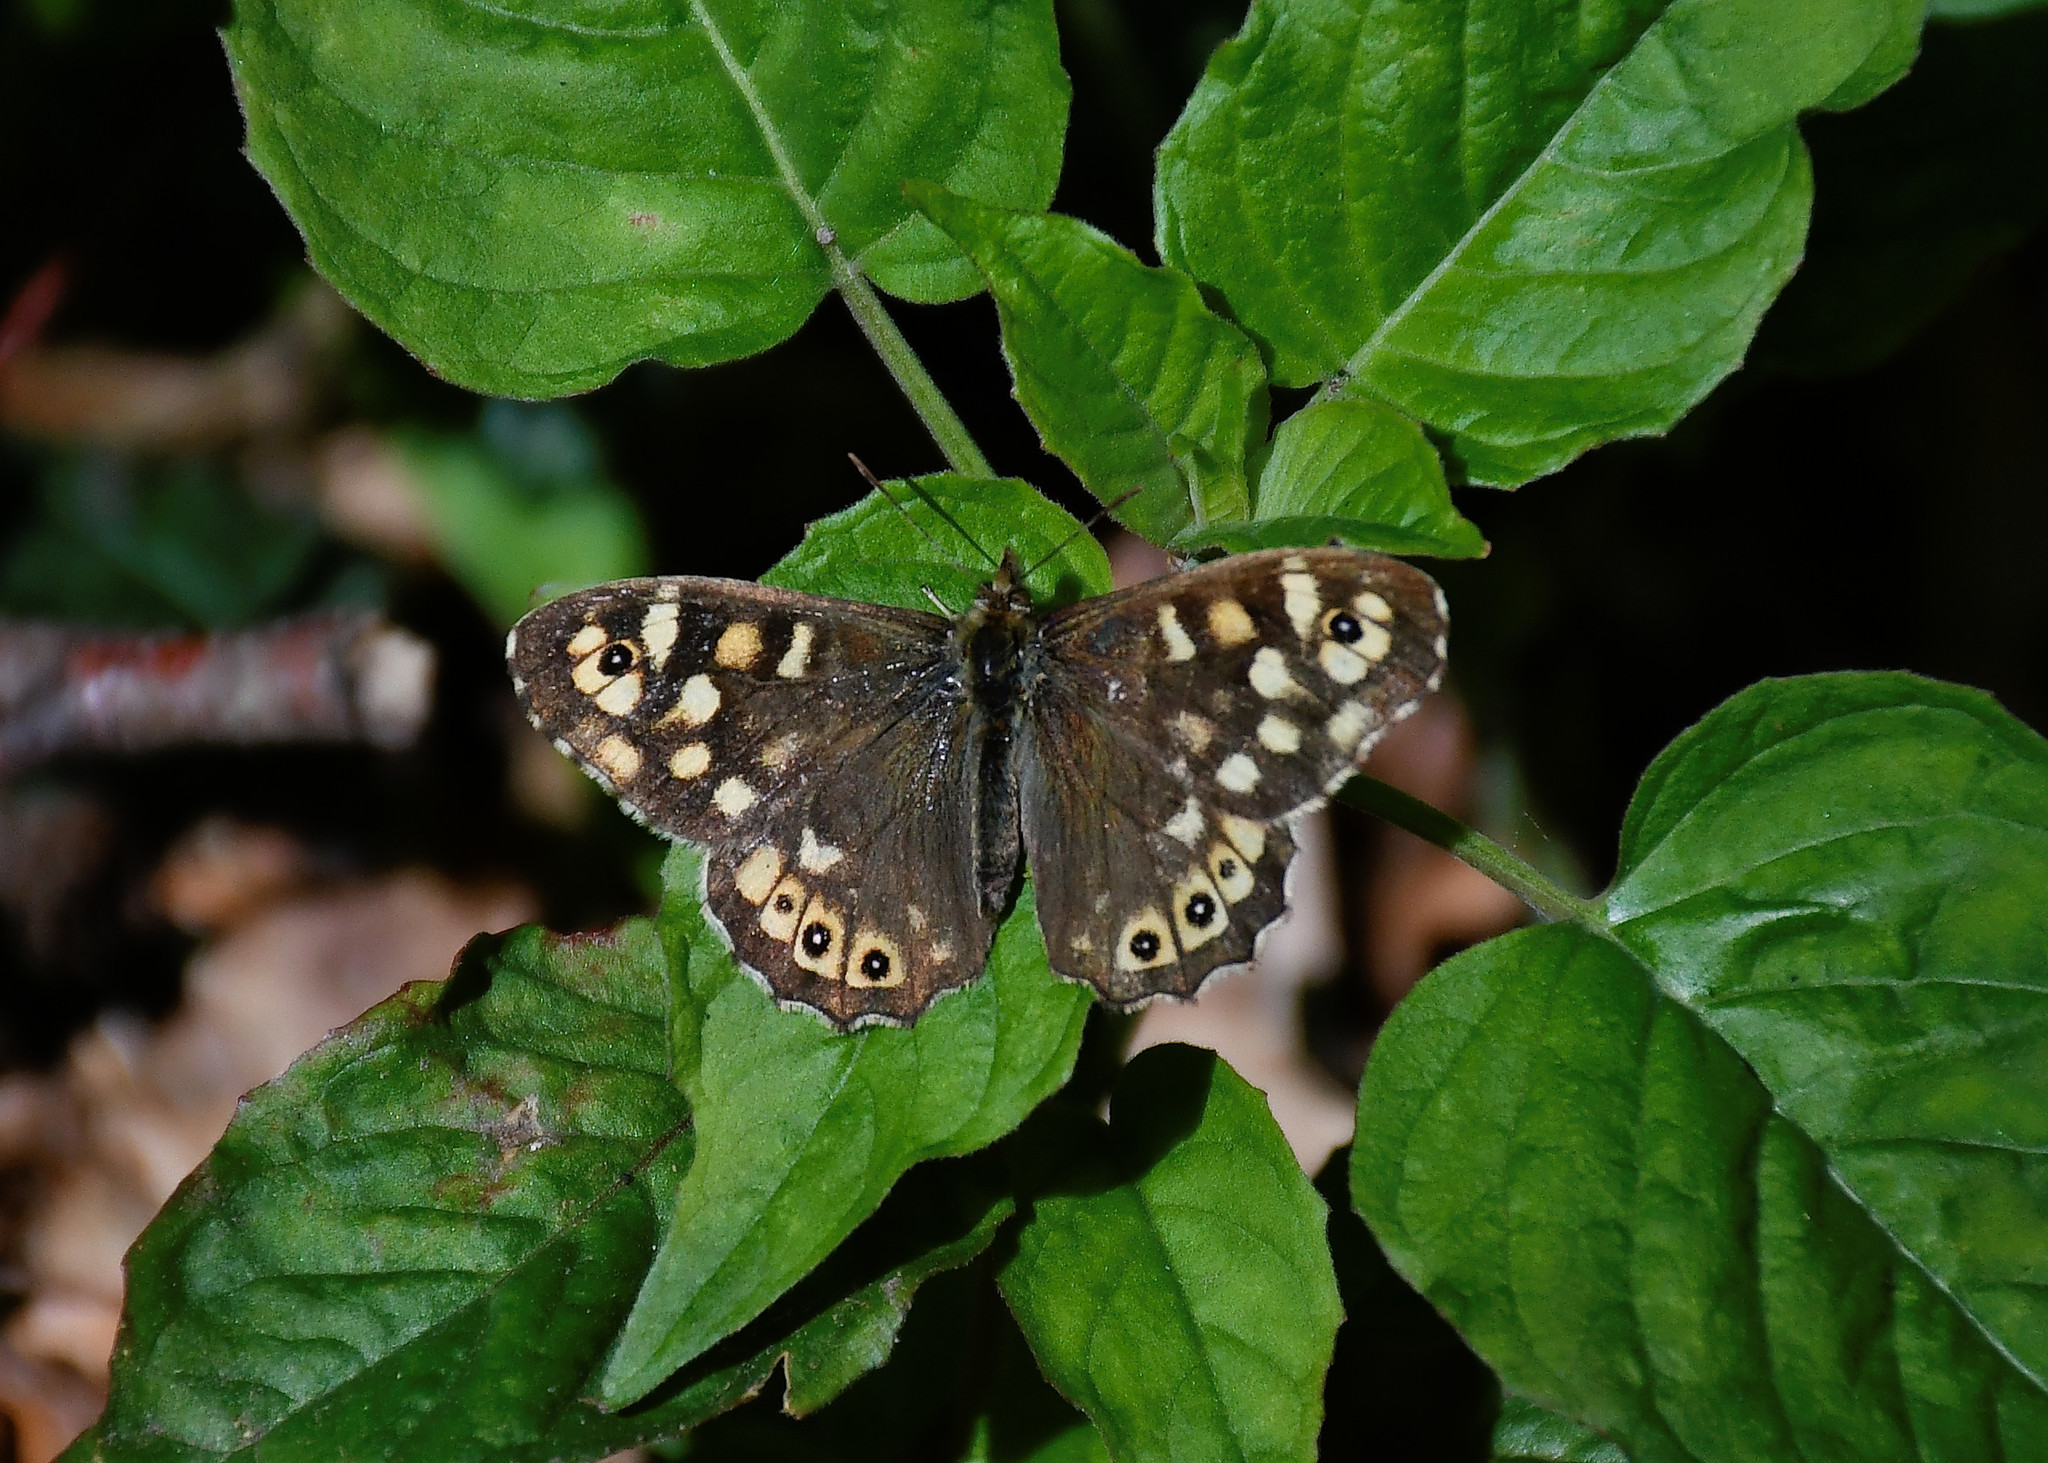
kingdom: Animalia
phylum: Arthropoda
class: Insecta
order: Lepidoptera
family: Nymphalidae
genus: Pararge
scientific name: Pararge aegeria
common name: Speckled wood
